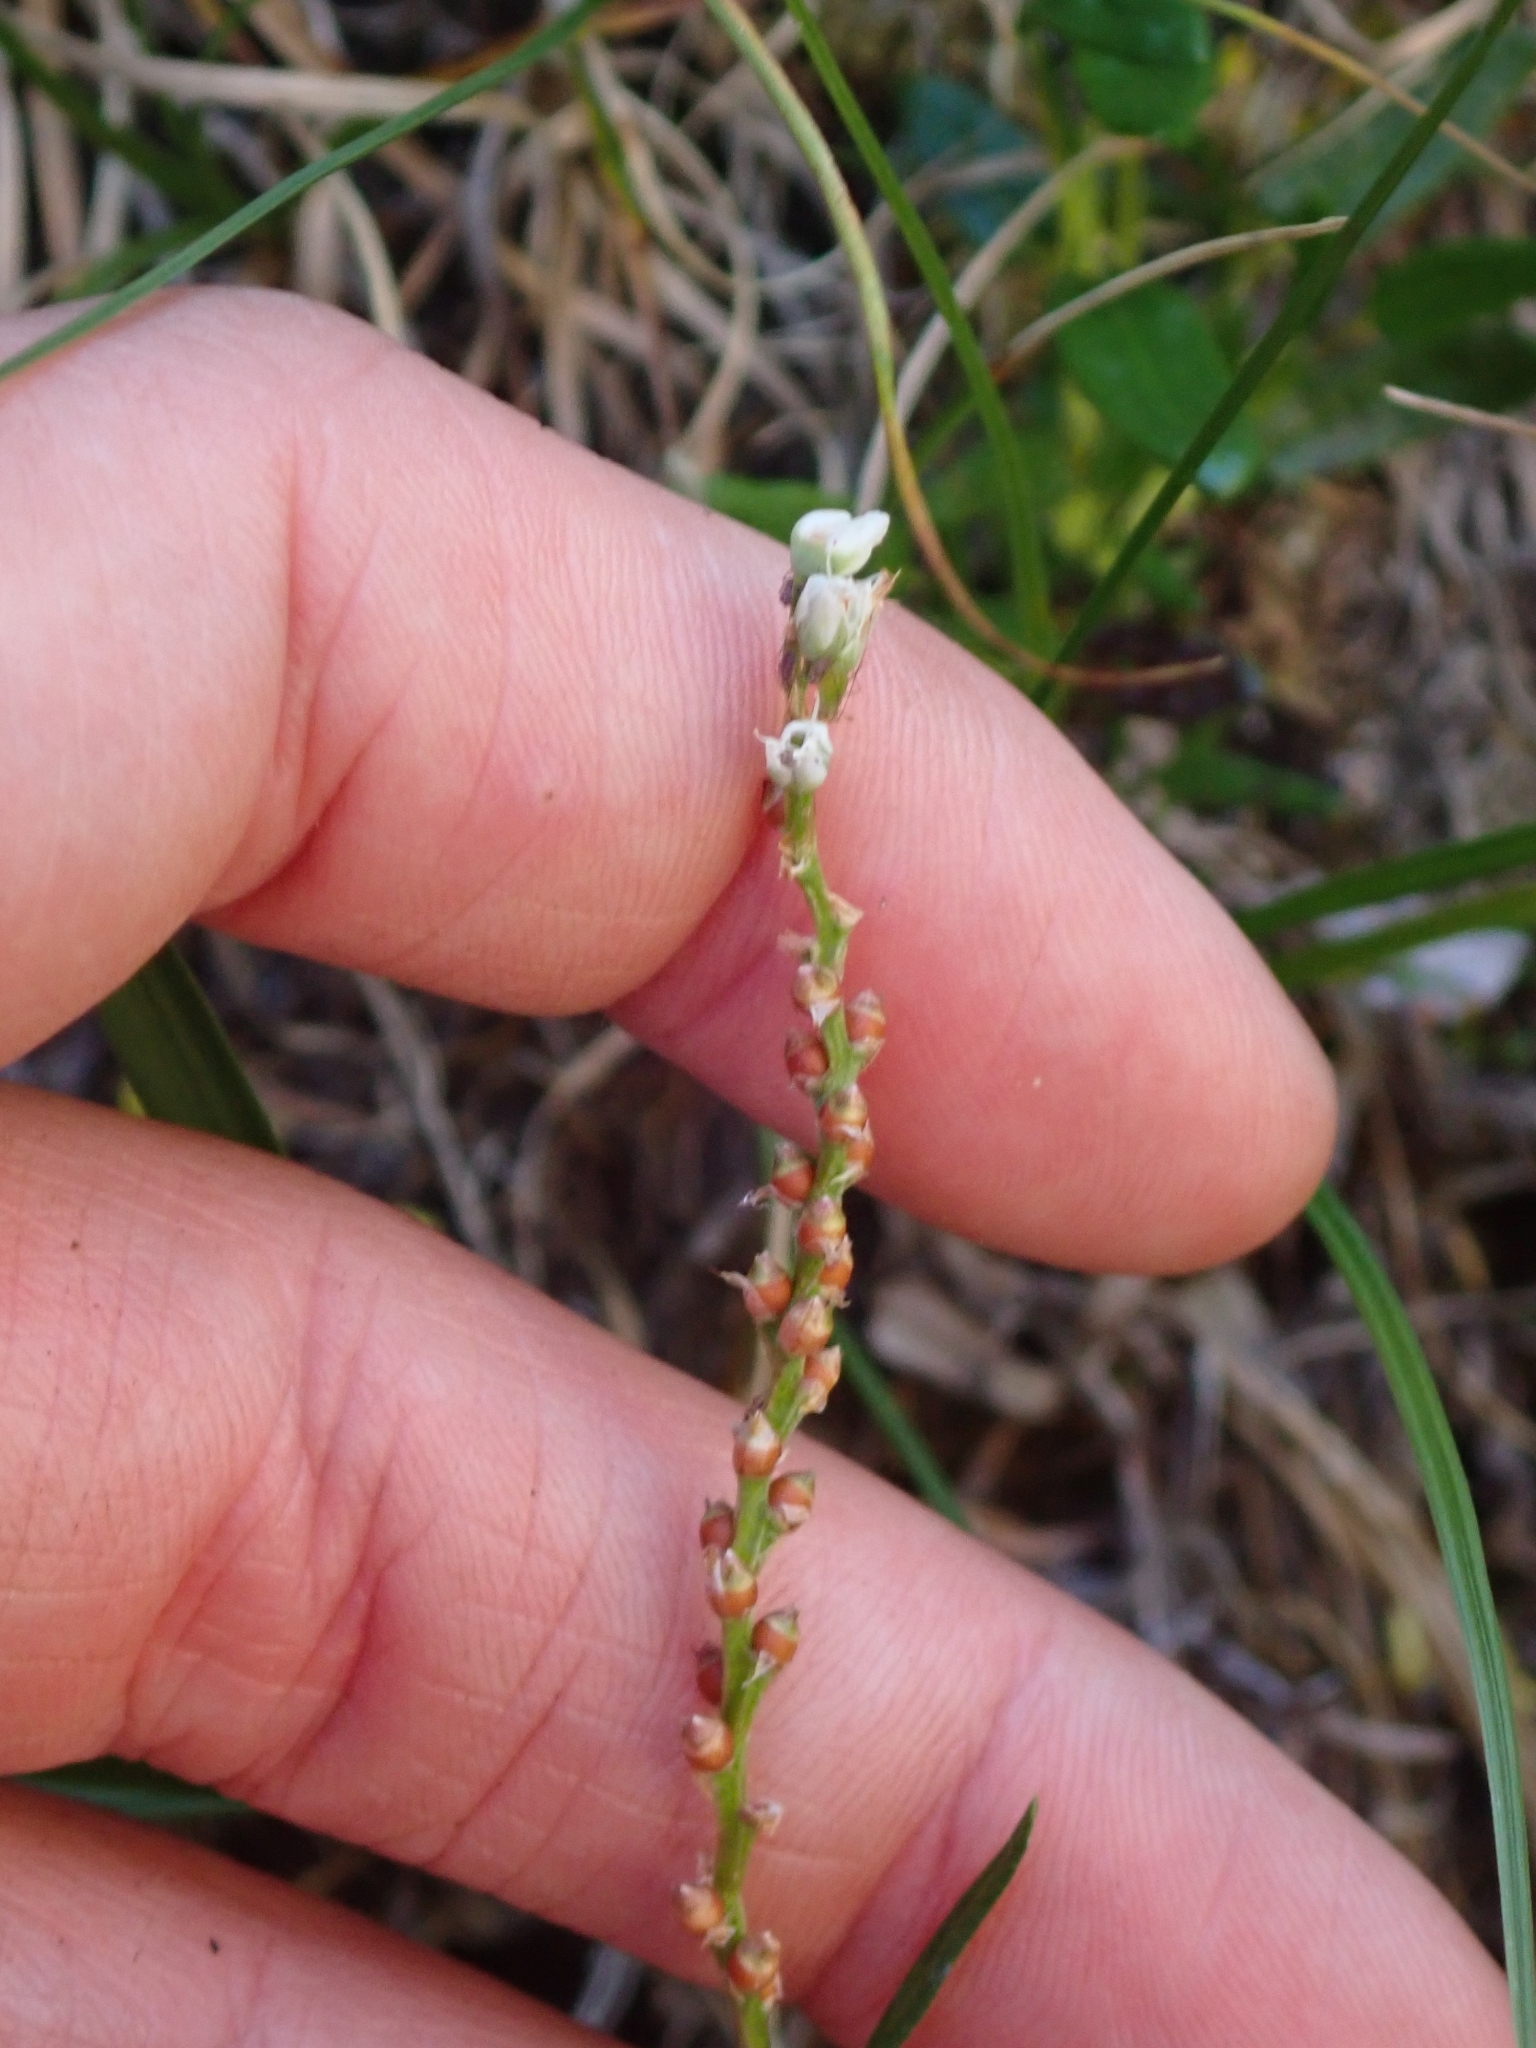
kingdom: Plantae
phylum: Tracheophyta
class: Magnoliopsida
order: Caryophyllales
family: Polygonaceae
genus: Bistorta
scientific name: Bistorta vivipara
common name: Alpine bistort
